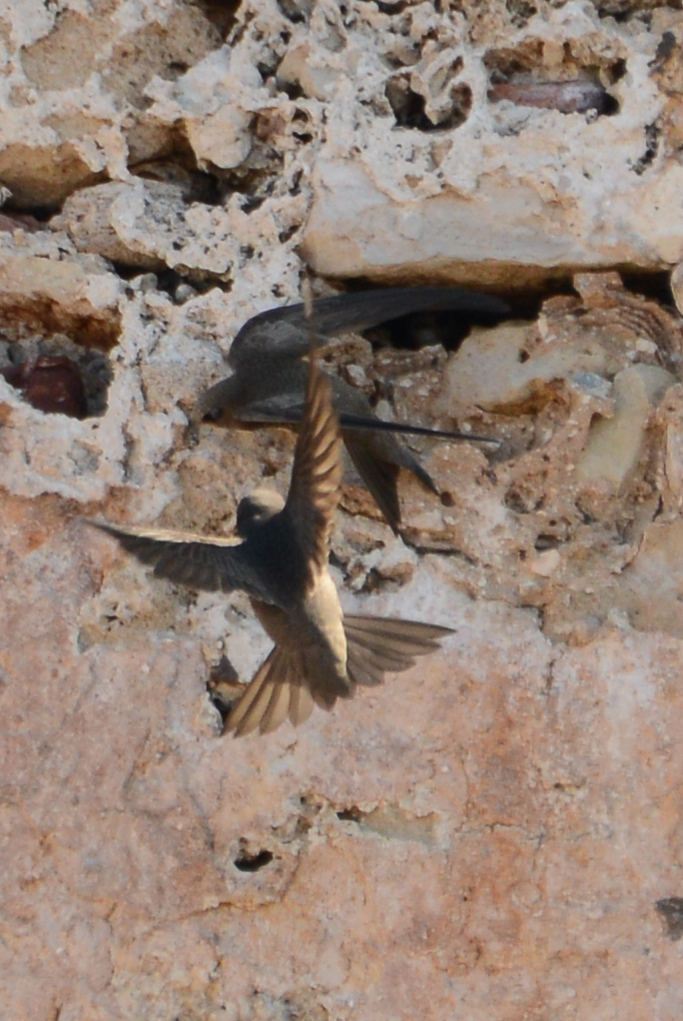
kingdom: Animalia
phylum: Chordata
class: Aves
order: Apodiformes
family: Apodidae
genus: Apus
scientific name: Apus pallidus
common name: Pallid swift
